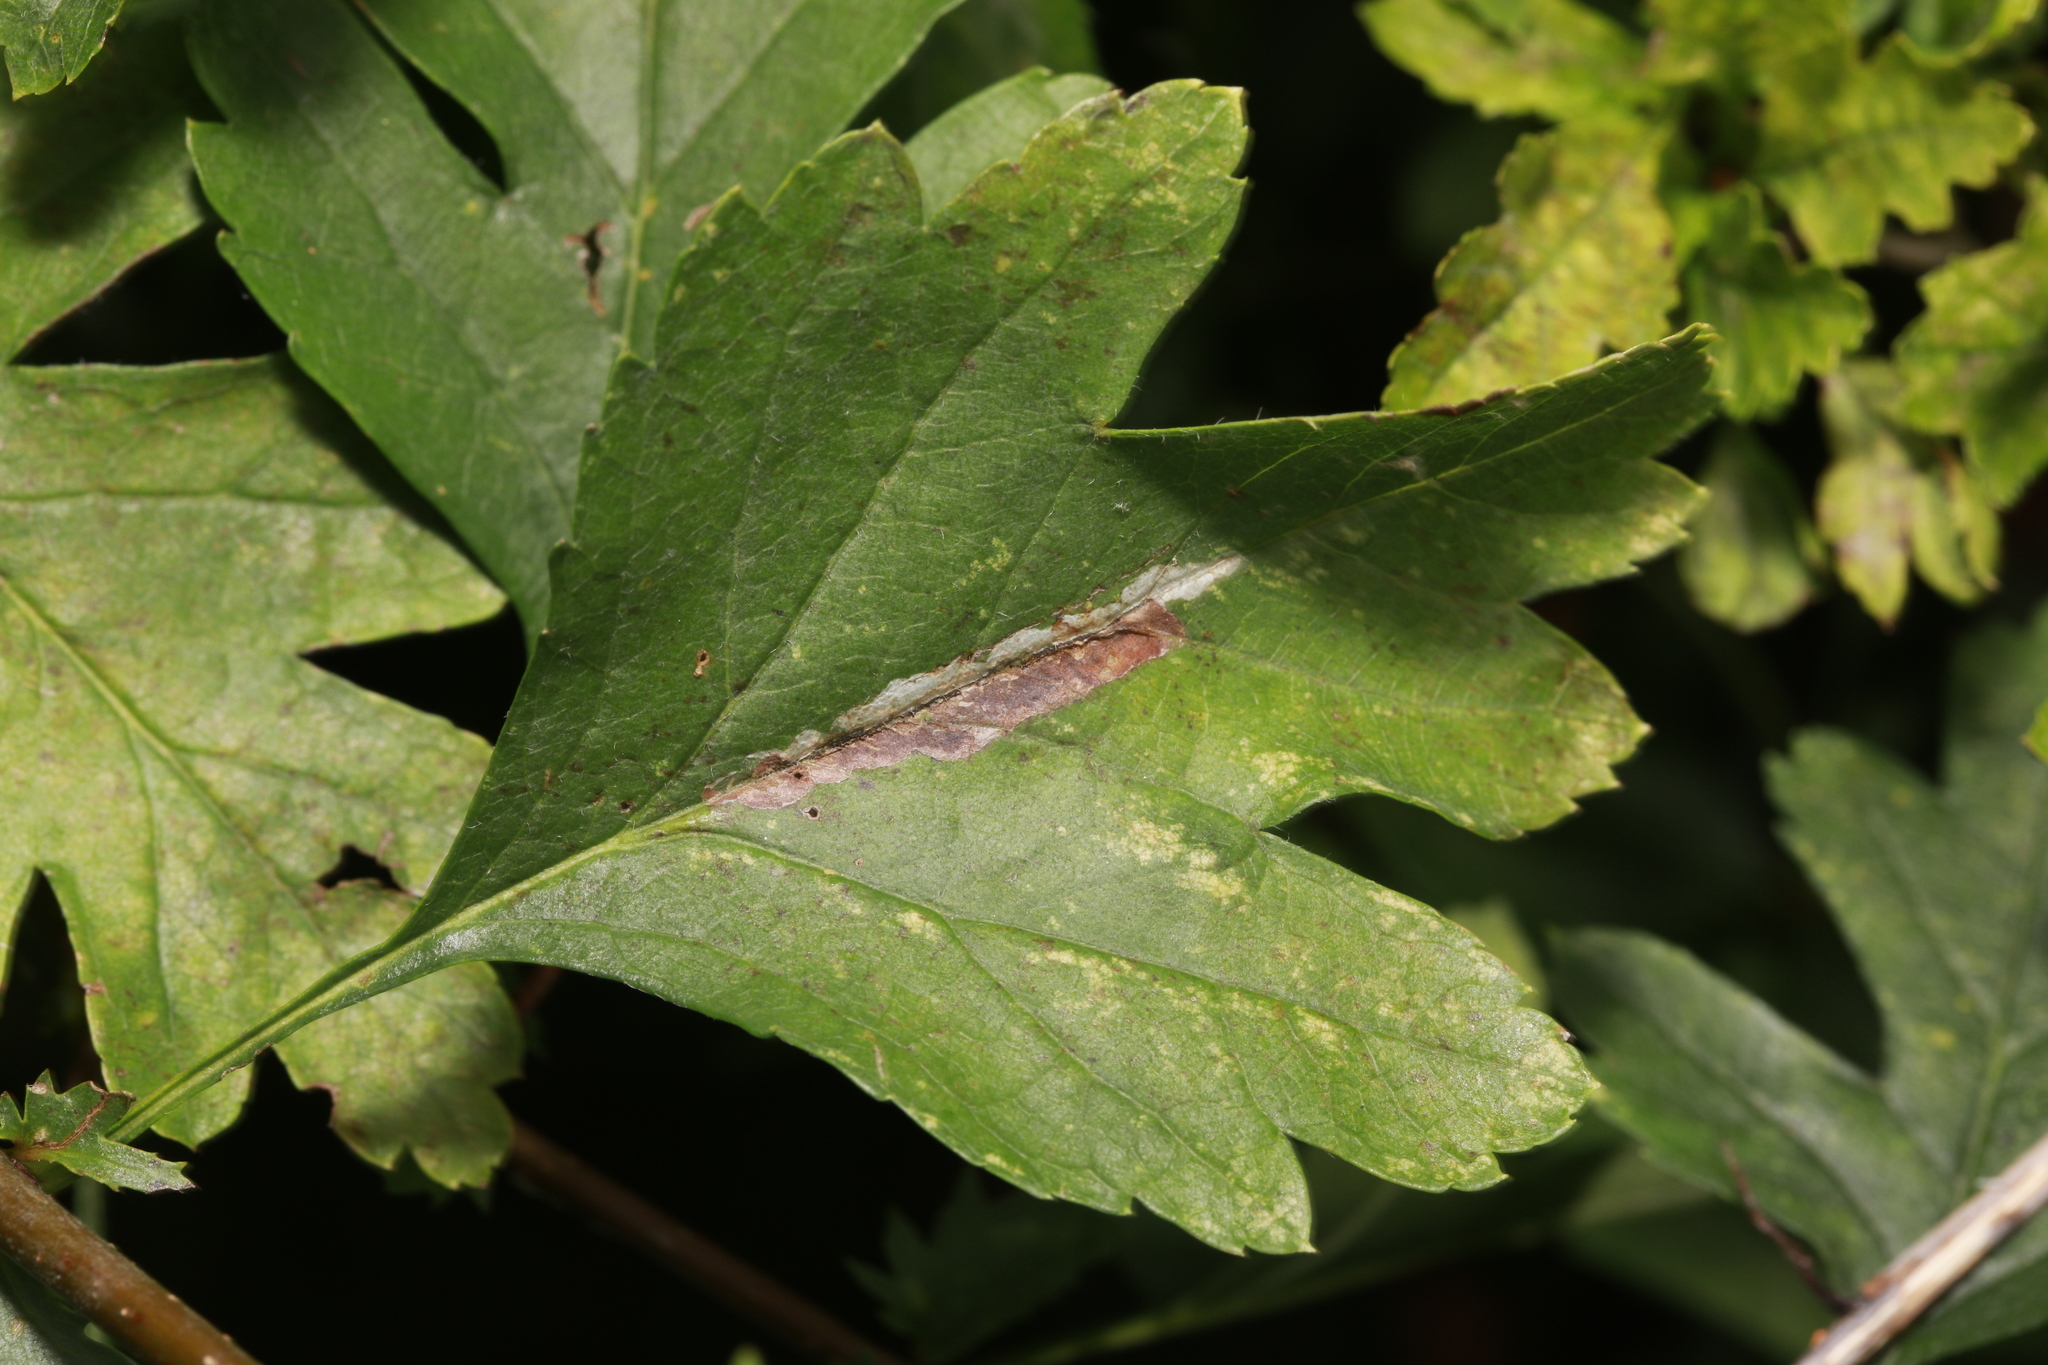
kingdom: Animalia
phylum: Arthropoda
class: Insecta
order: Lepidoptera
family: Gracillariidae
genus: Phyllonorycter
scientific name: Phyllonorycter leucographella
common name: Firethorn leaf-miner
